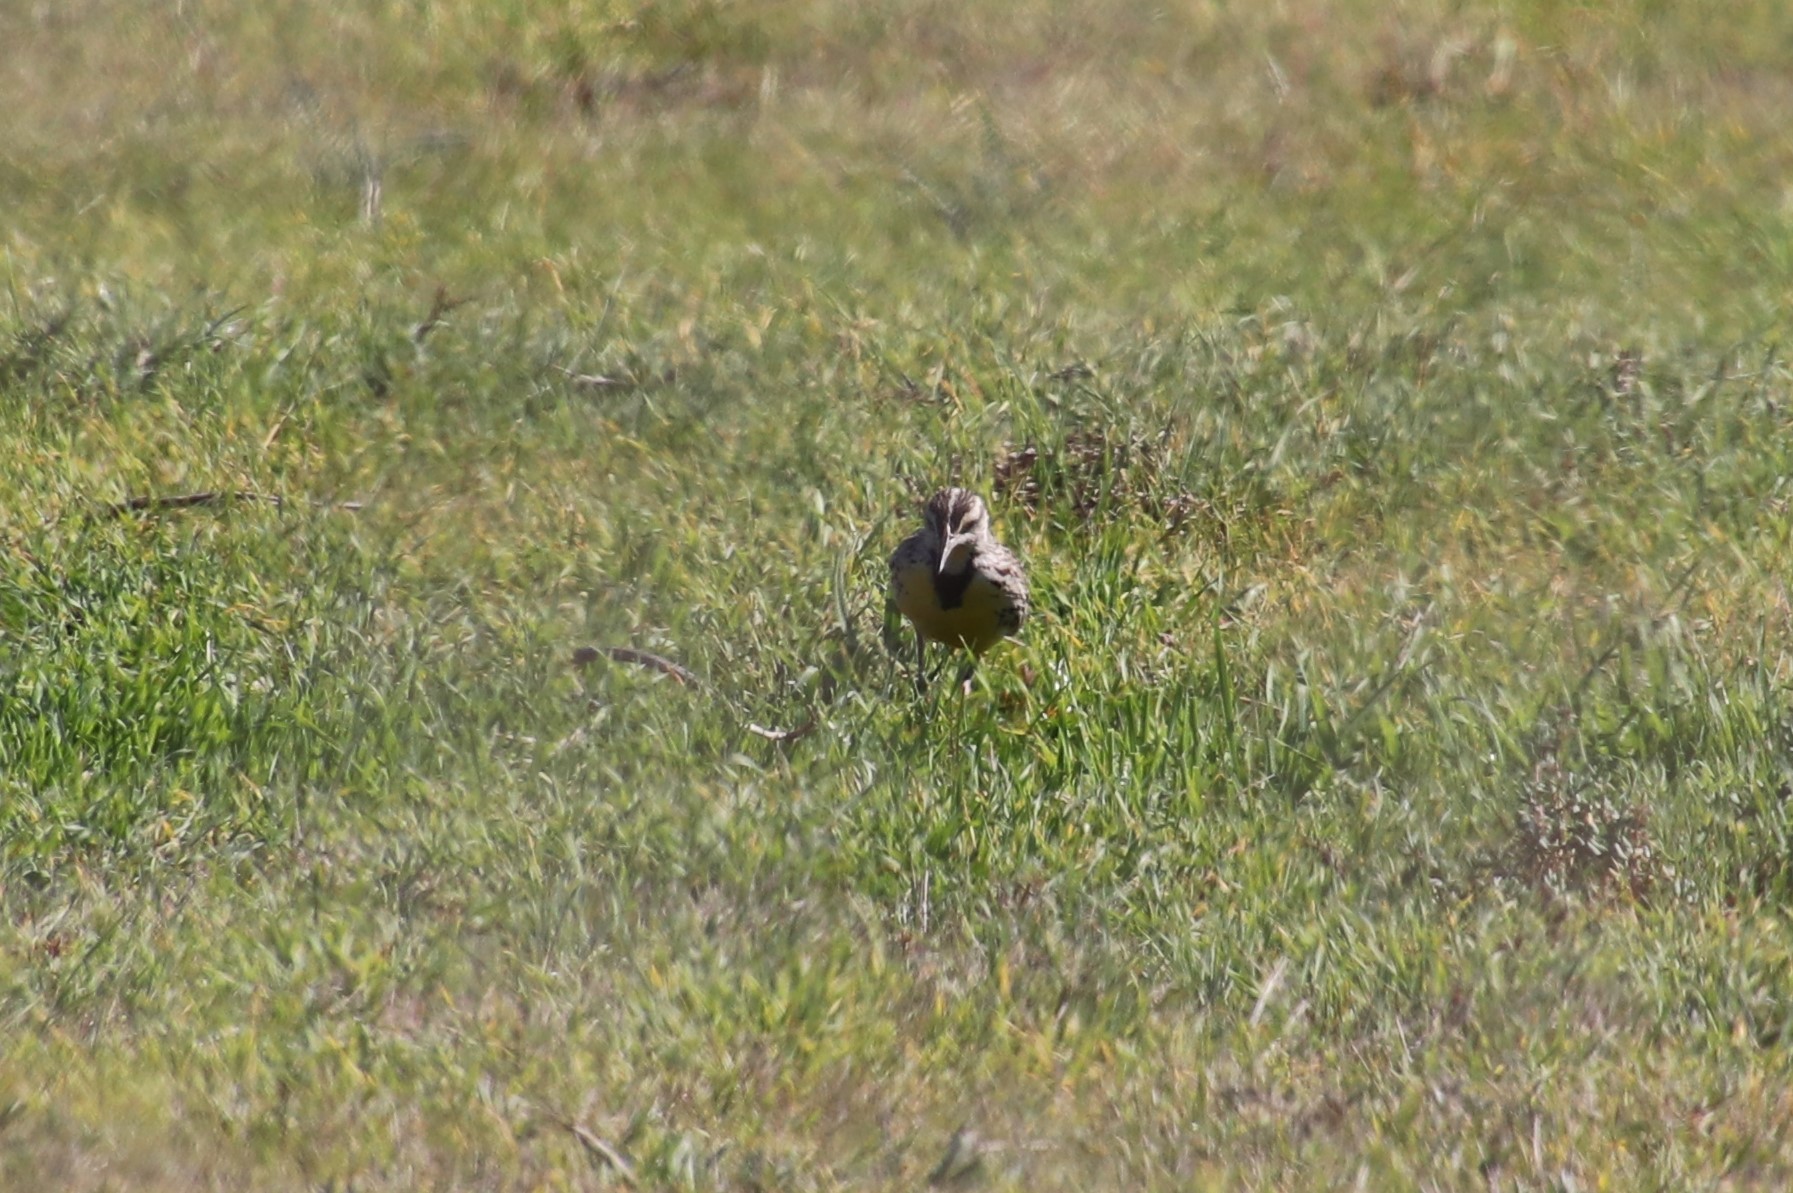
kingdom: Animalia
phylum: Chordata
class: Aves
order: Passeriformes
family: Icteridae
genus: Sturnella
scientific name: Sturnella neglecta
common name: Western meadowlark
